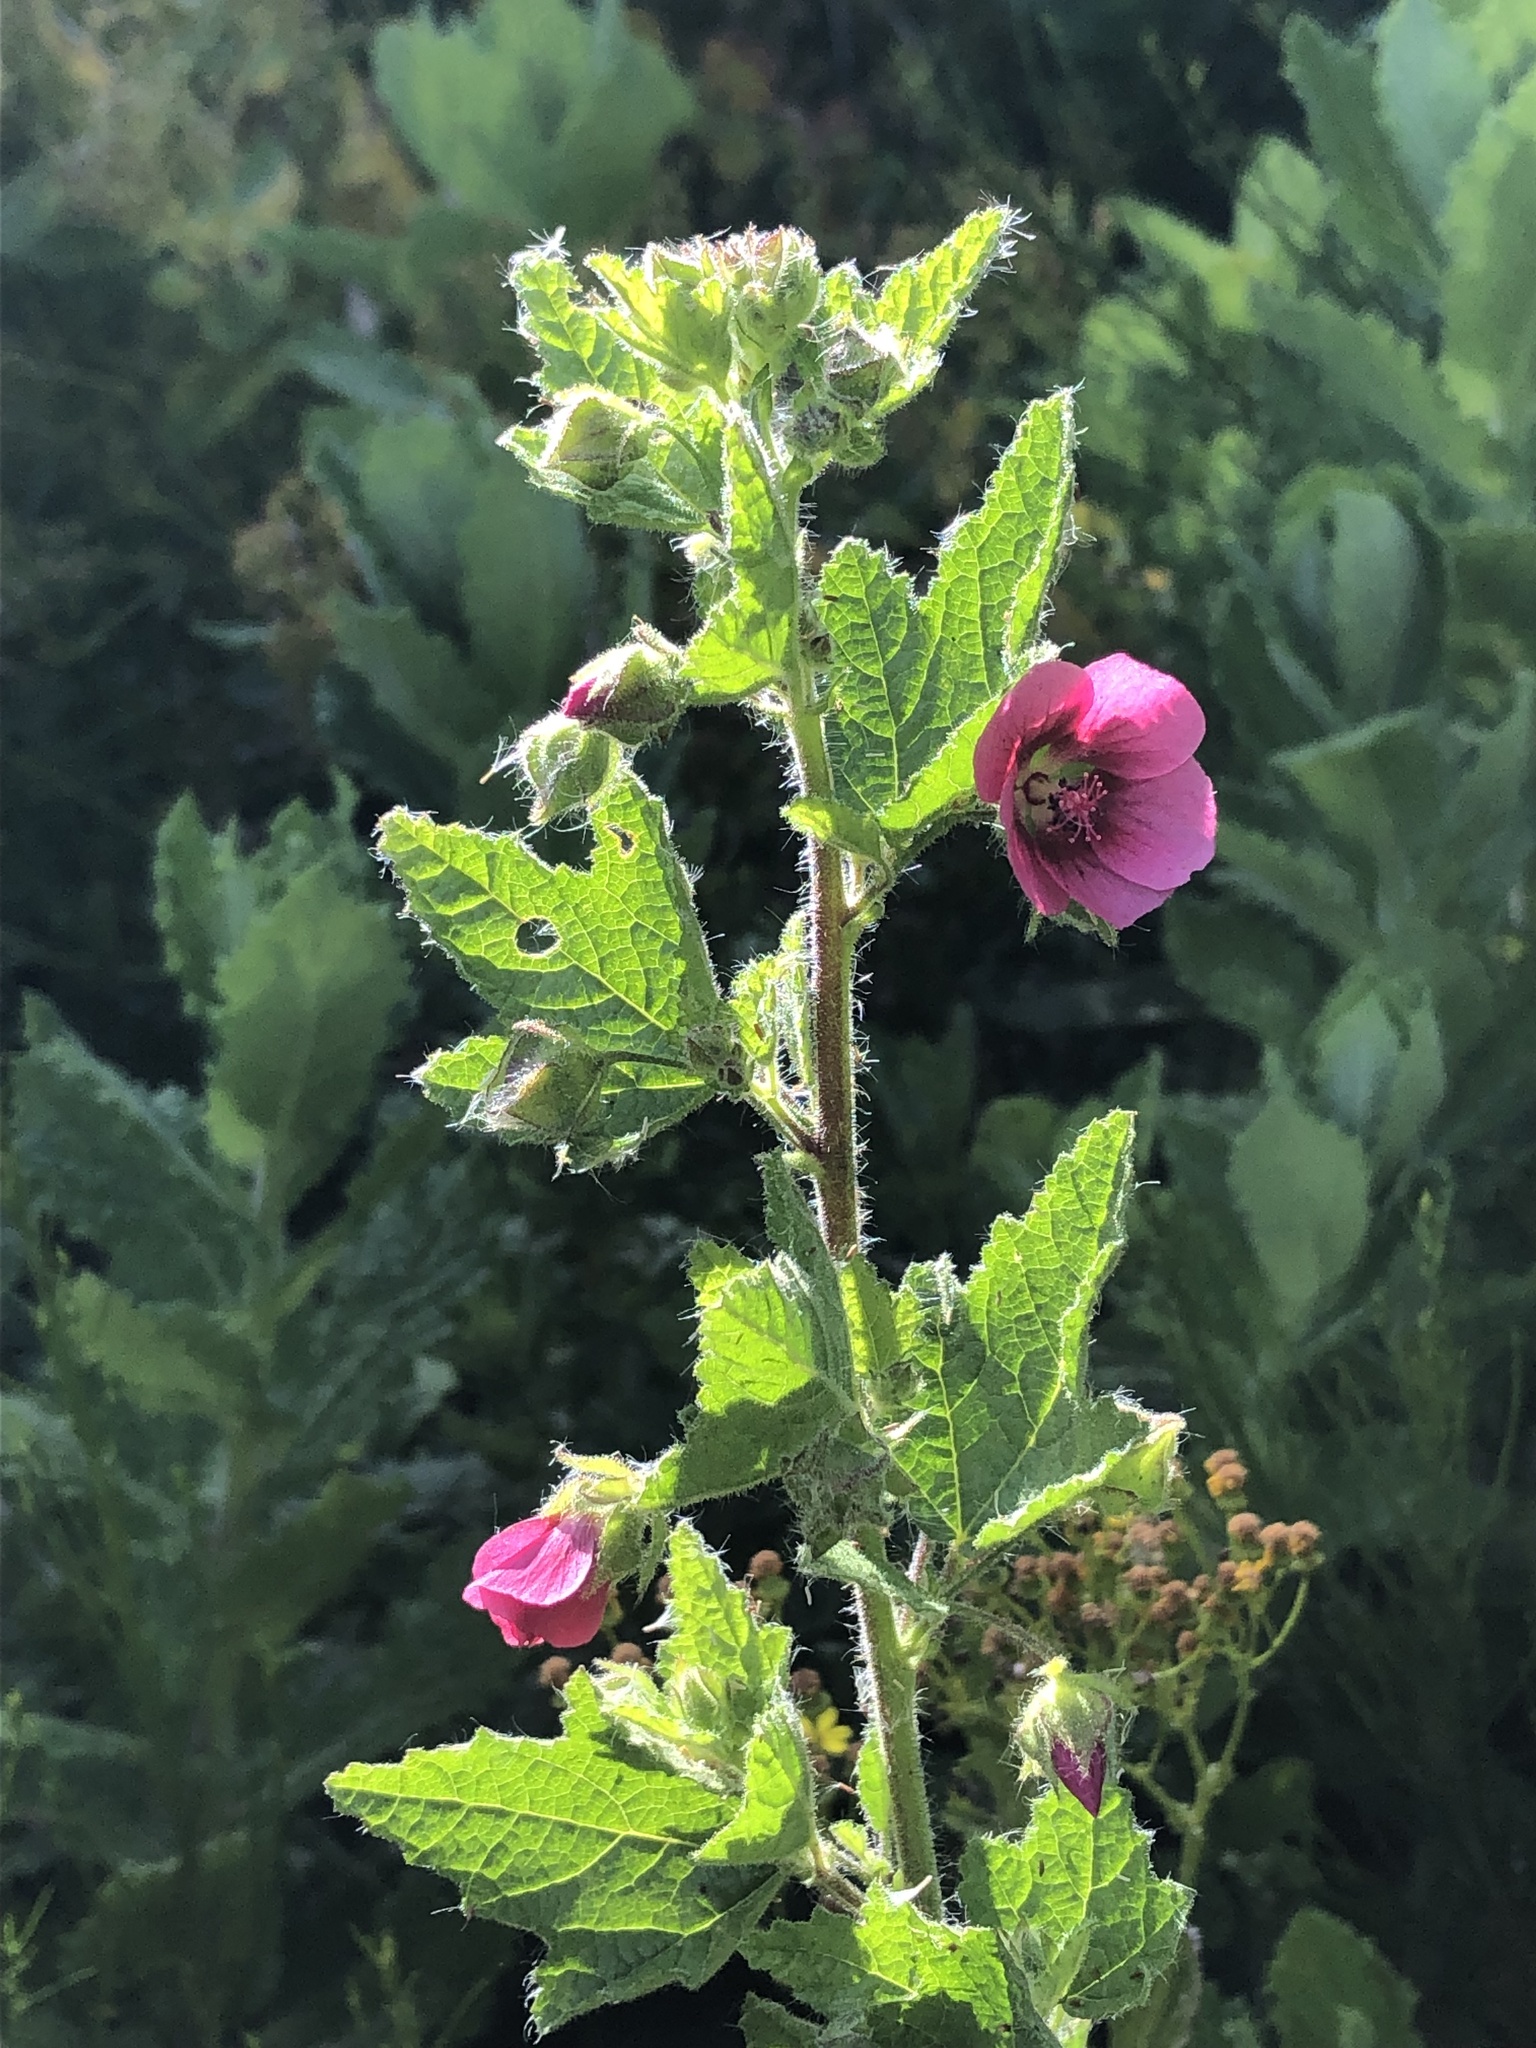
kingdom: Plantae
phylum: Tracheophyta
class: Magnoliopsida
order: Malvales
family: Malvaceae
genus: Anisodontea
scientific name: Anisodontea scabrosa
